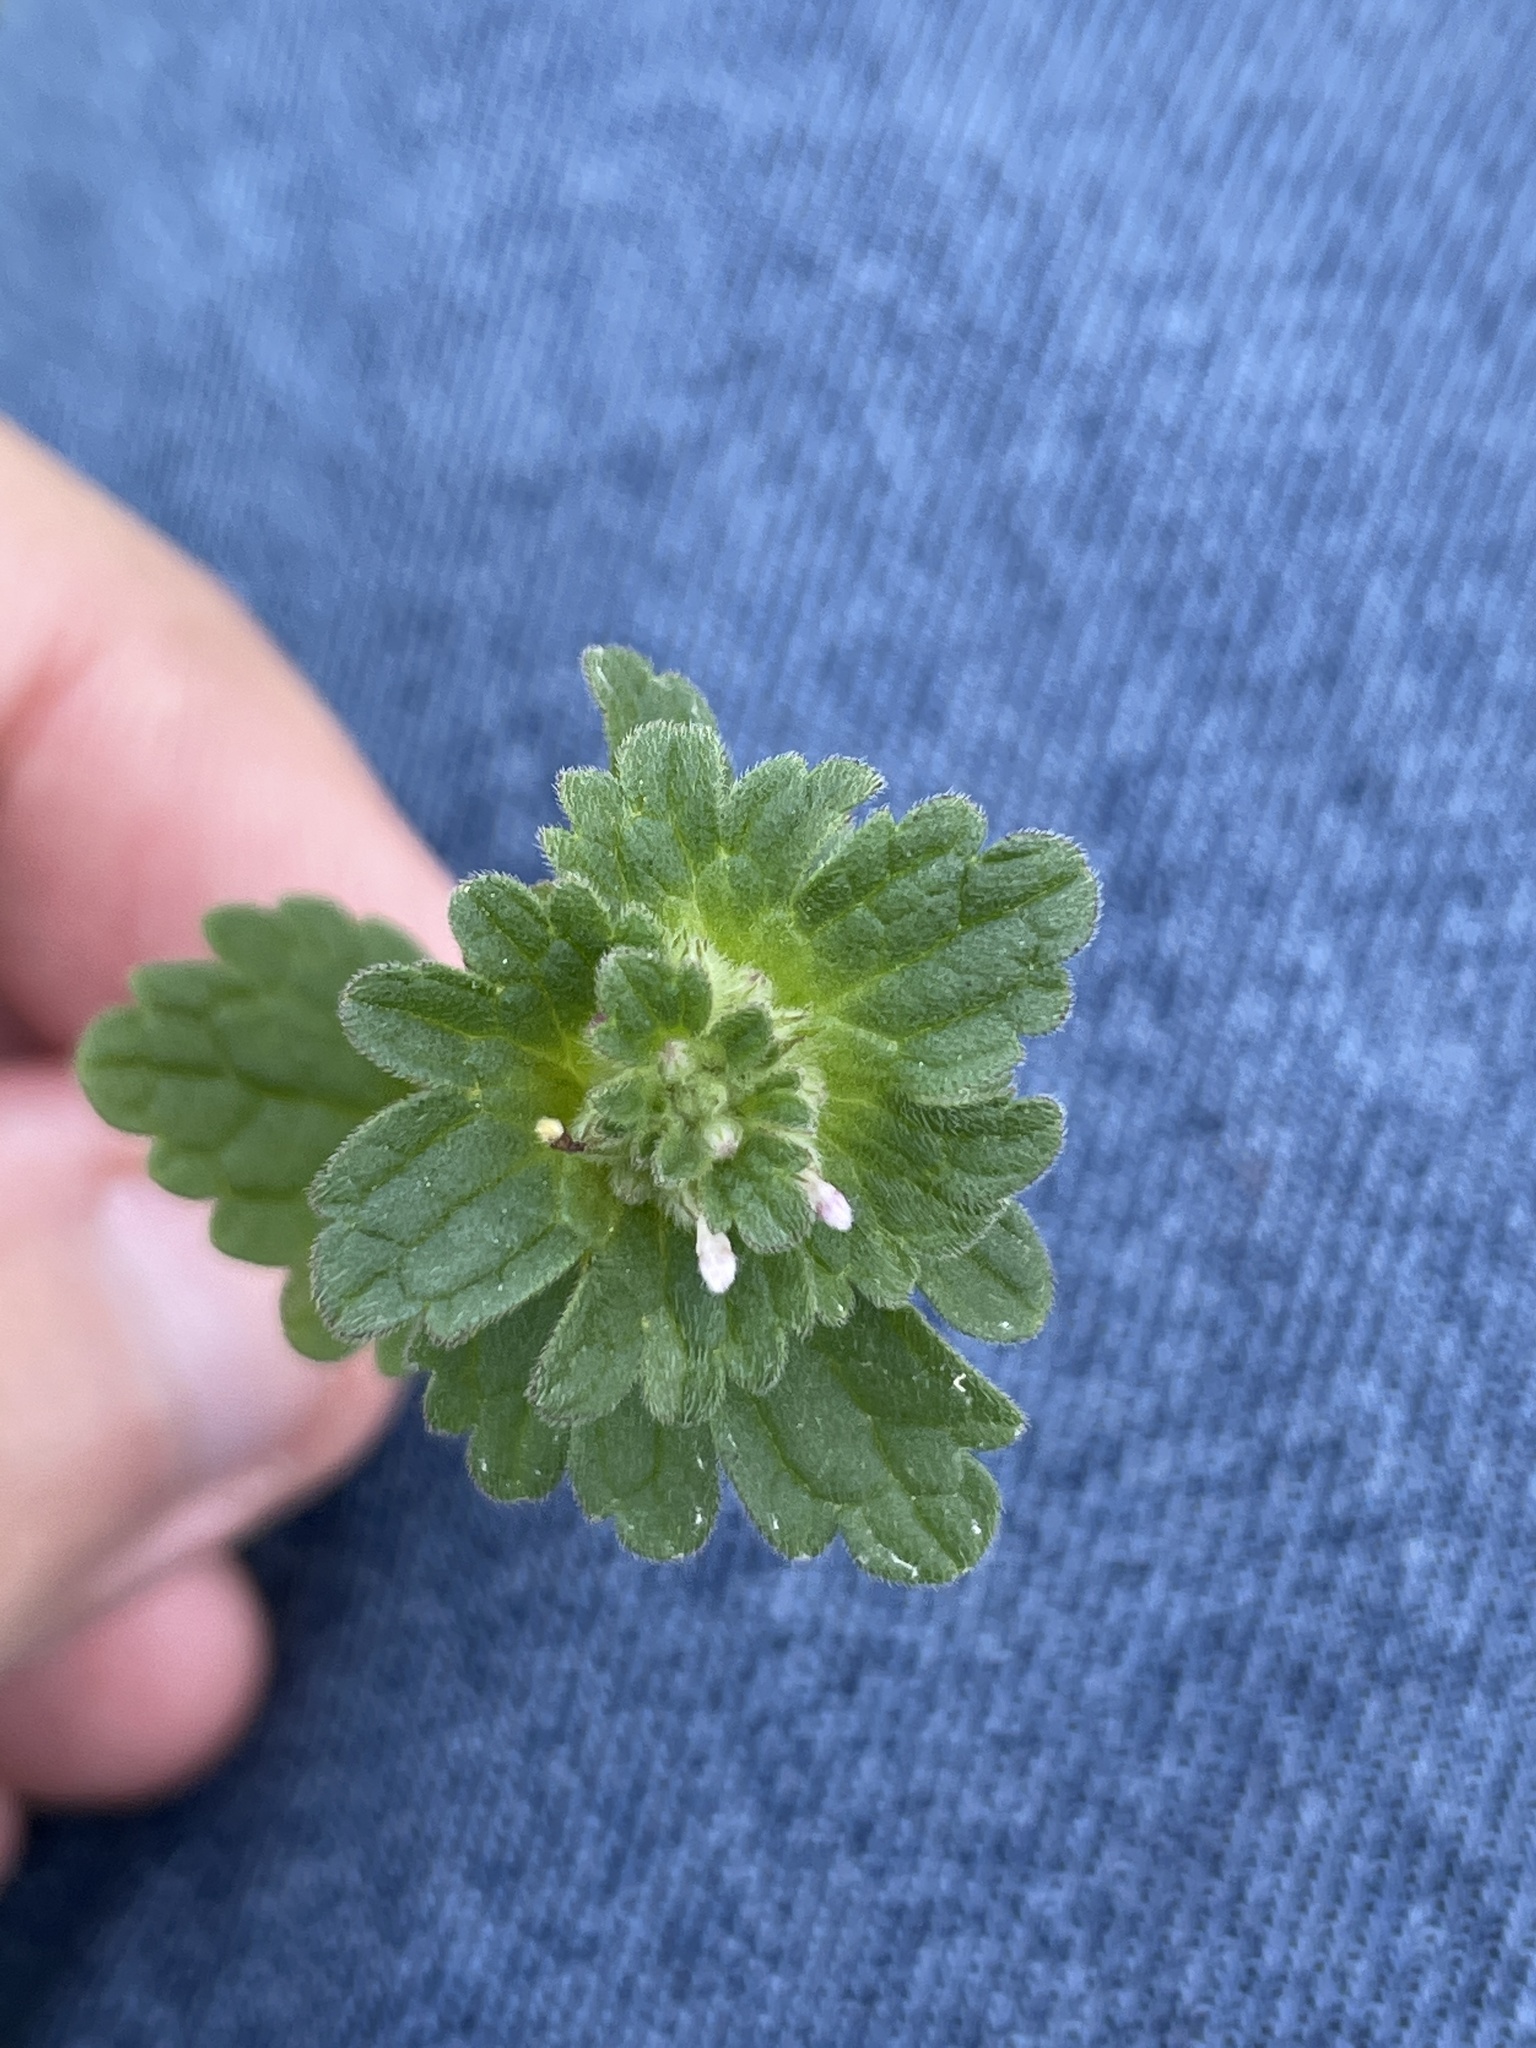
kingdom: Plantae
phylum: Tracheophyta
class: Magnoliopsida
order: Lamiales
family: Lamiaceae
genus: Lamium
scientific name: Lamium amplexicaule
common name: Henbit dead-nettle
